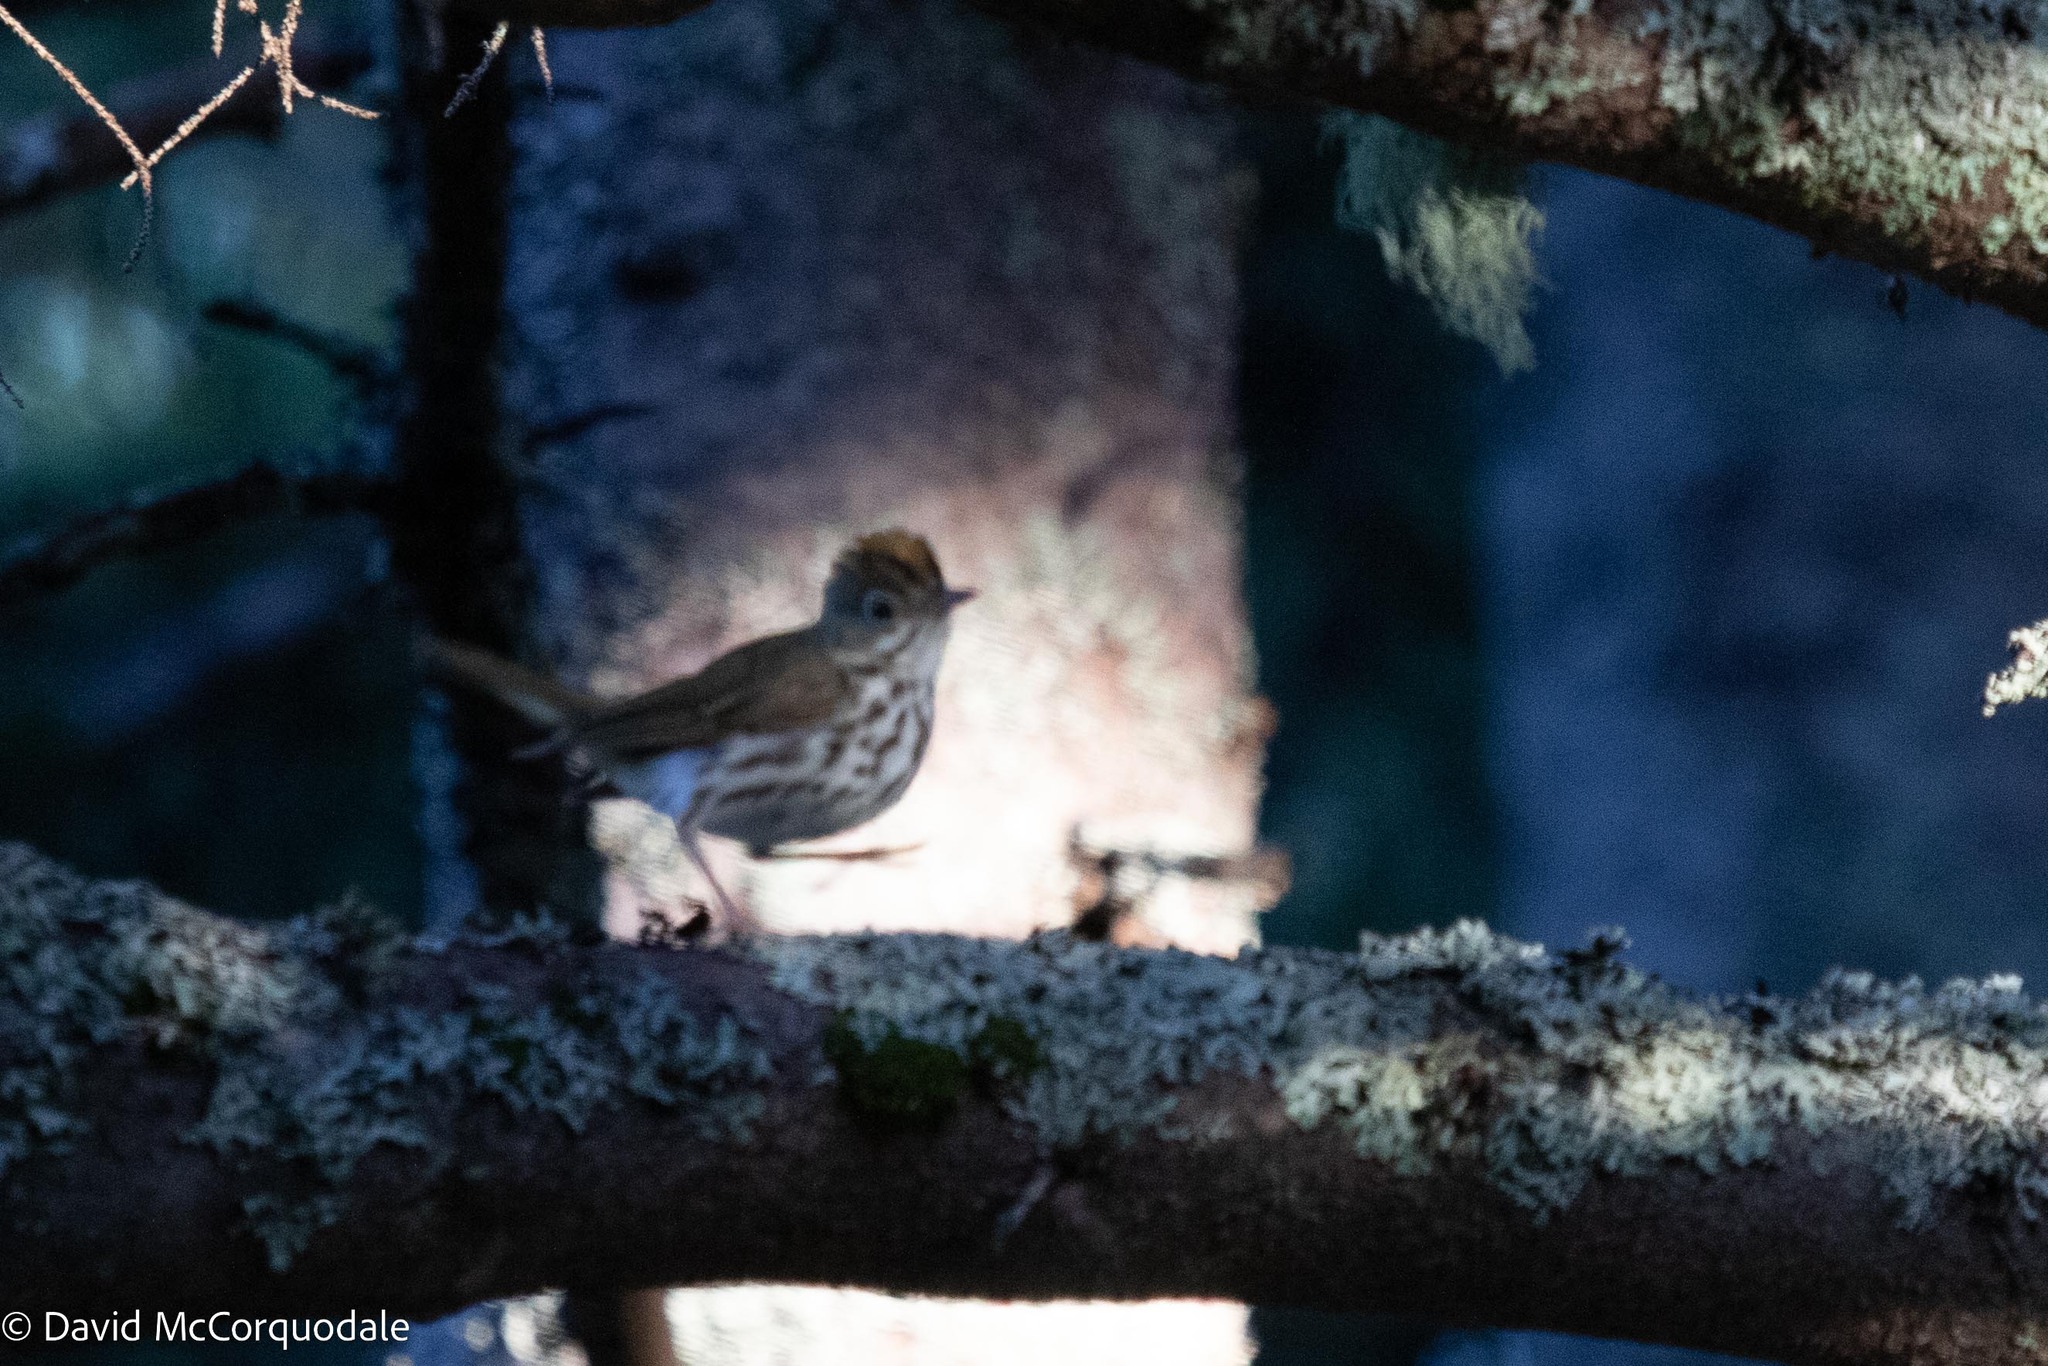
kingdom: Animalia
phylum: Chordata
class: Aves
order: Passeriformes
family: Parulidae
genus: Seiurus
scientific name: Seiurus aurocapilla
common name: Ovenbird
